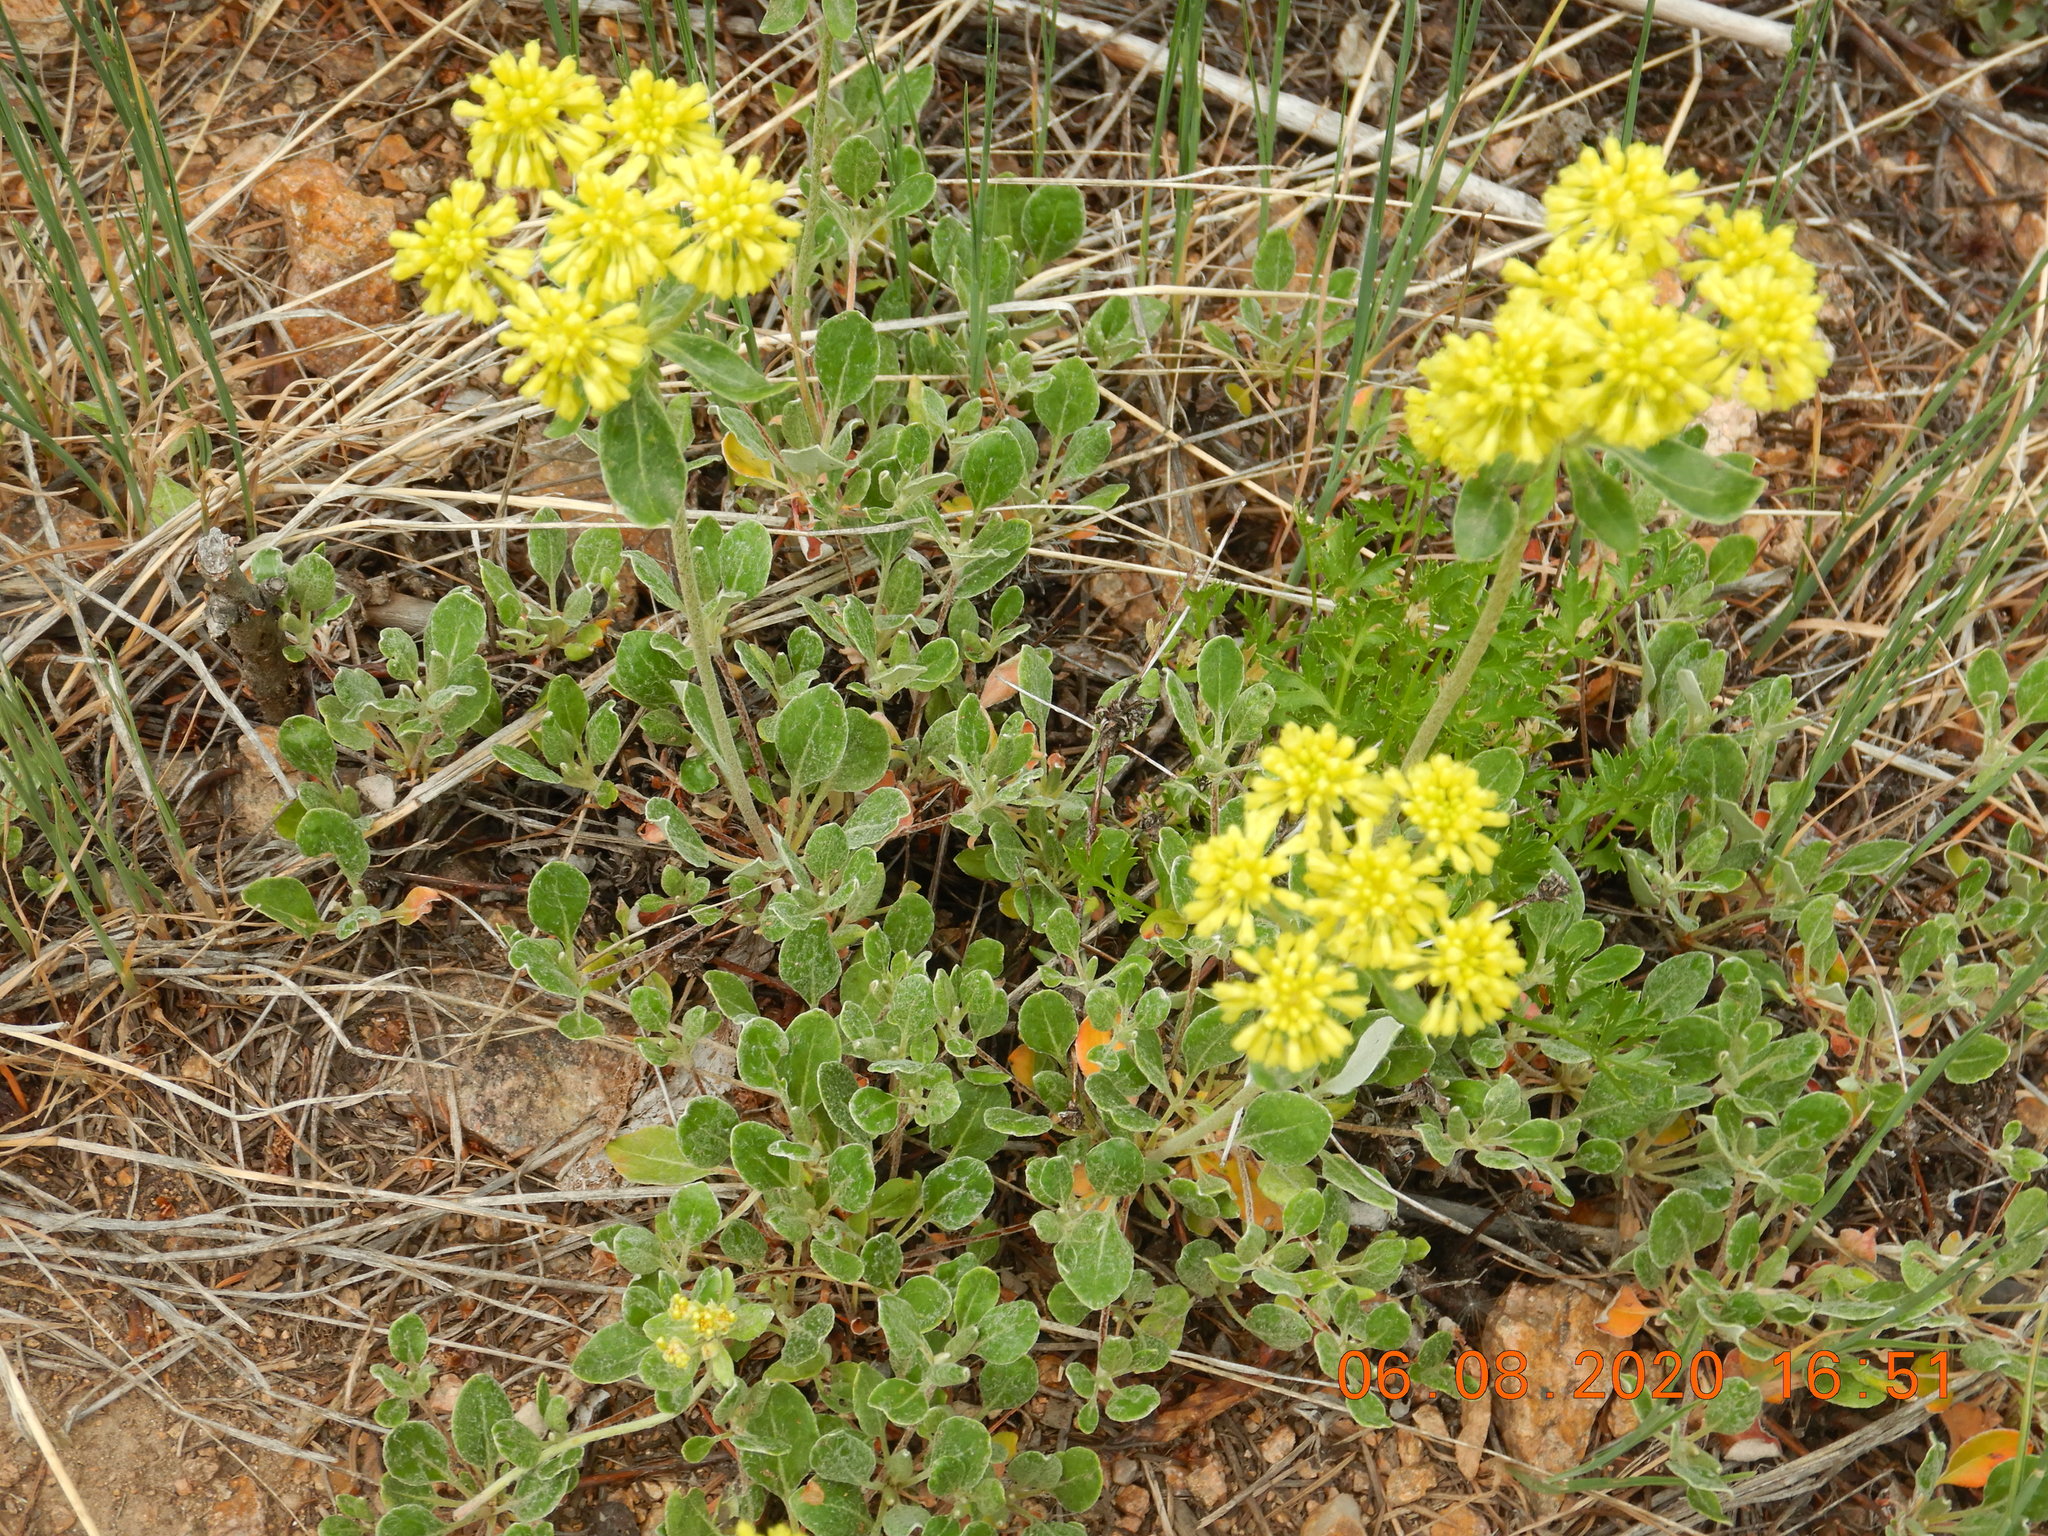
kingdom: Plantae
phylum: Tracheophyta
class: Magnoliopsida
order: Caryophyllales
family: Polygonaceae
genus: Eriogonum
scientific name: Eriogonum umbellatum
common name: Sulfur-buckwheat
